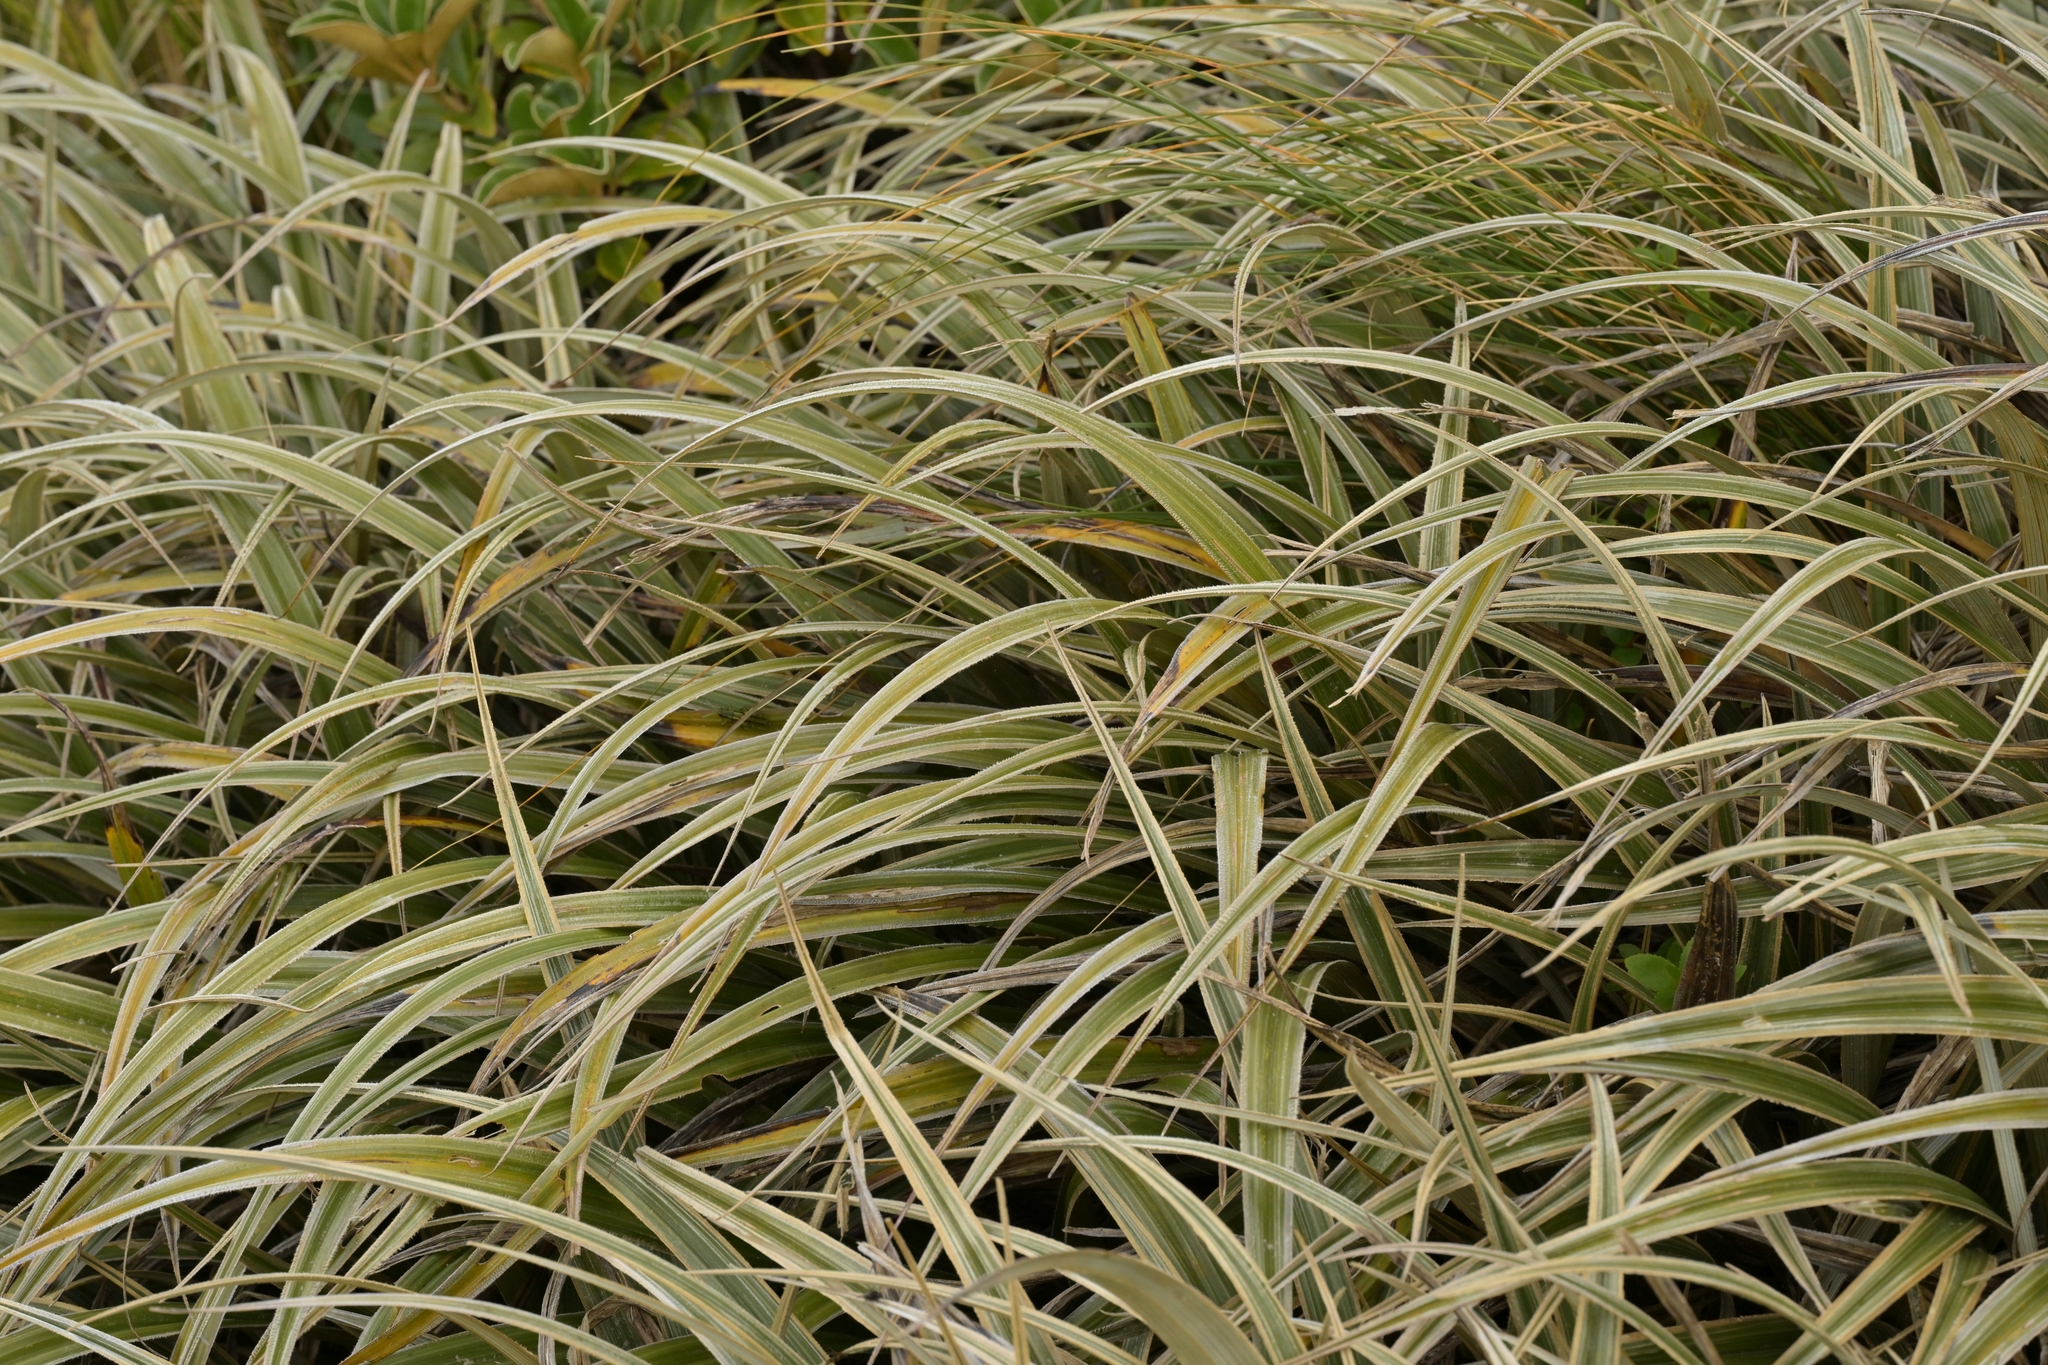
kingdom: Plantae
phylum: Tracheophyta
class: Liliopsida
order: Asparagales
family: Asteliaceae
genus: Astelia
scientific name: Astelia nervosa
